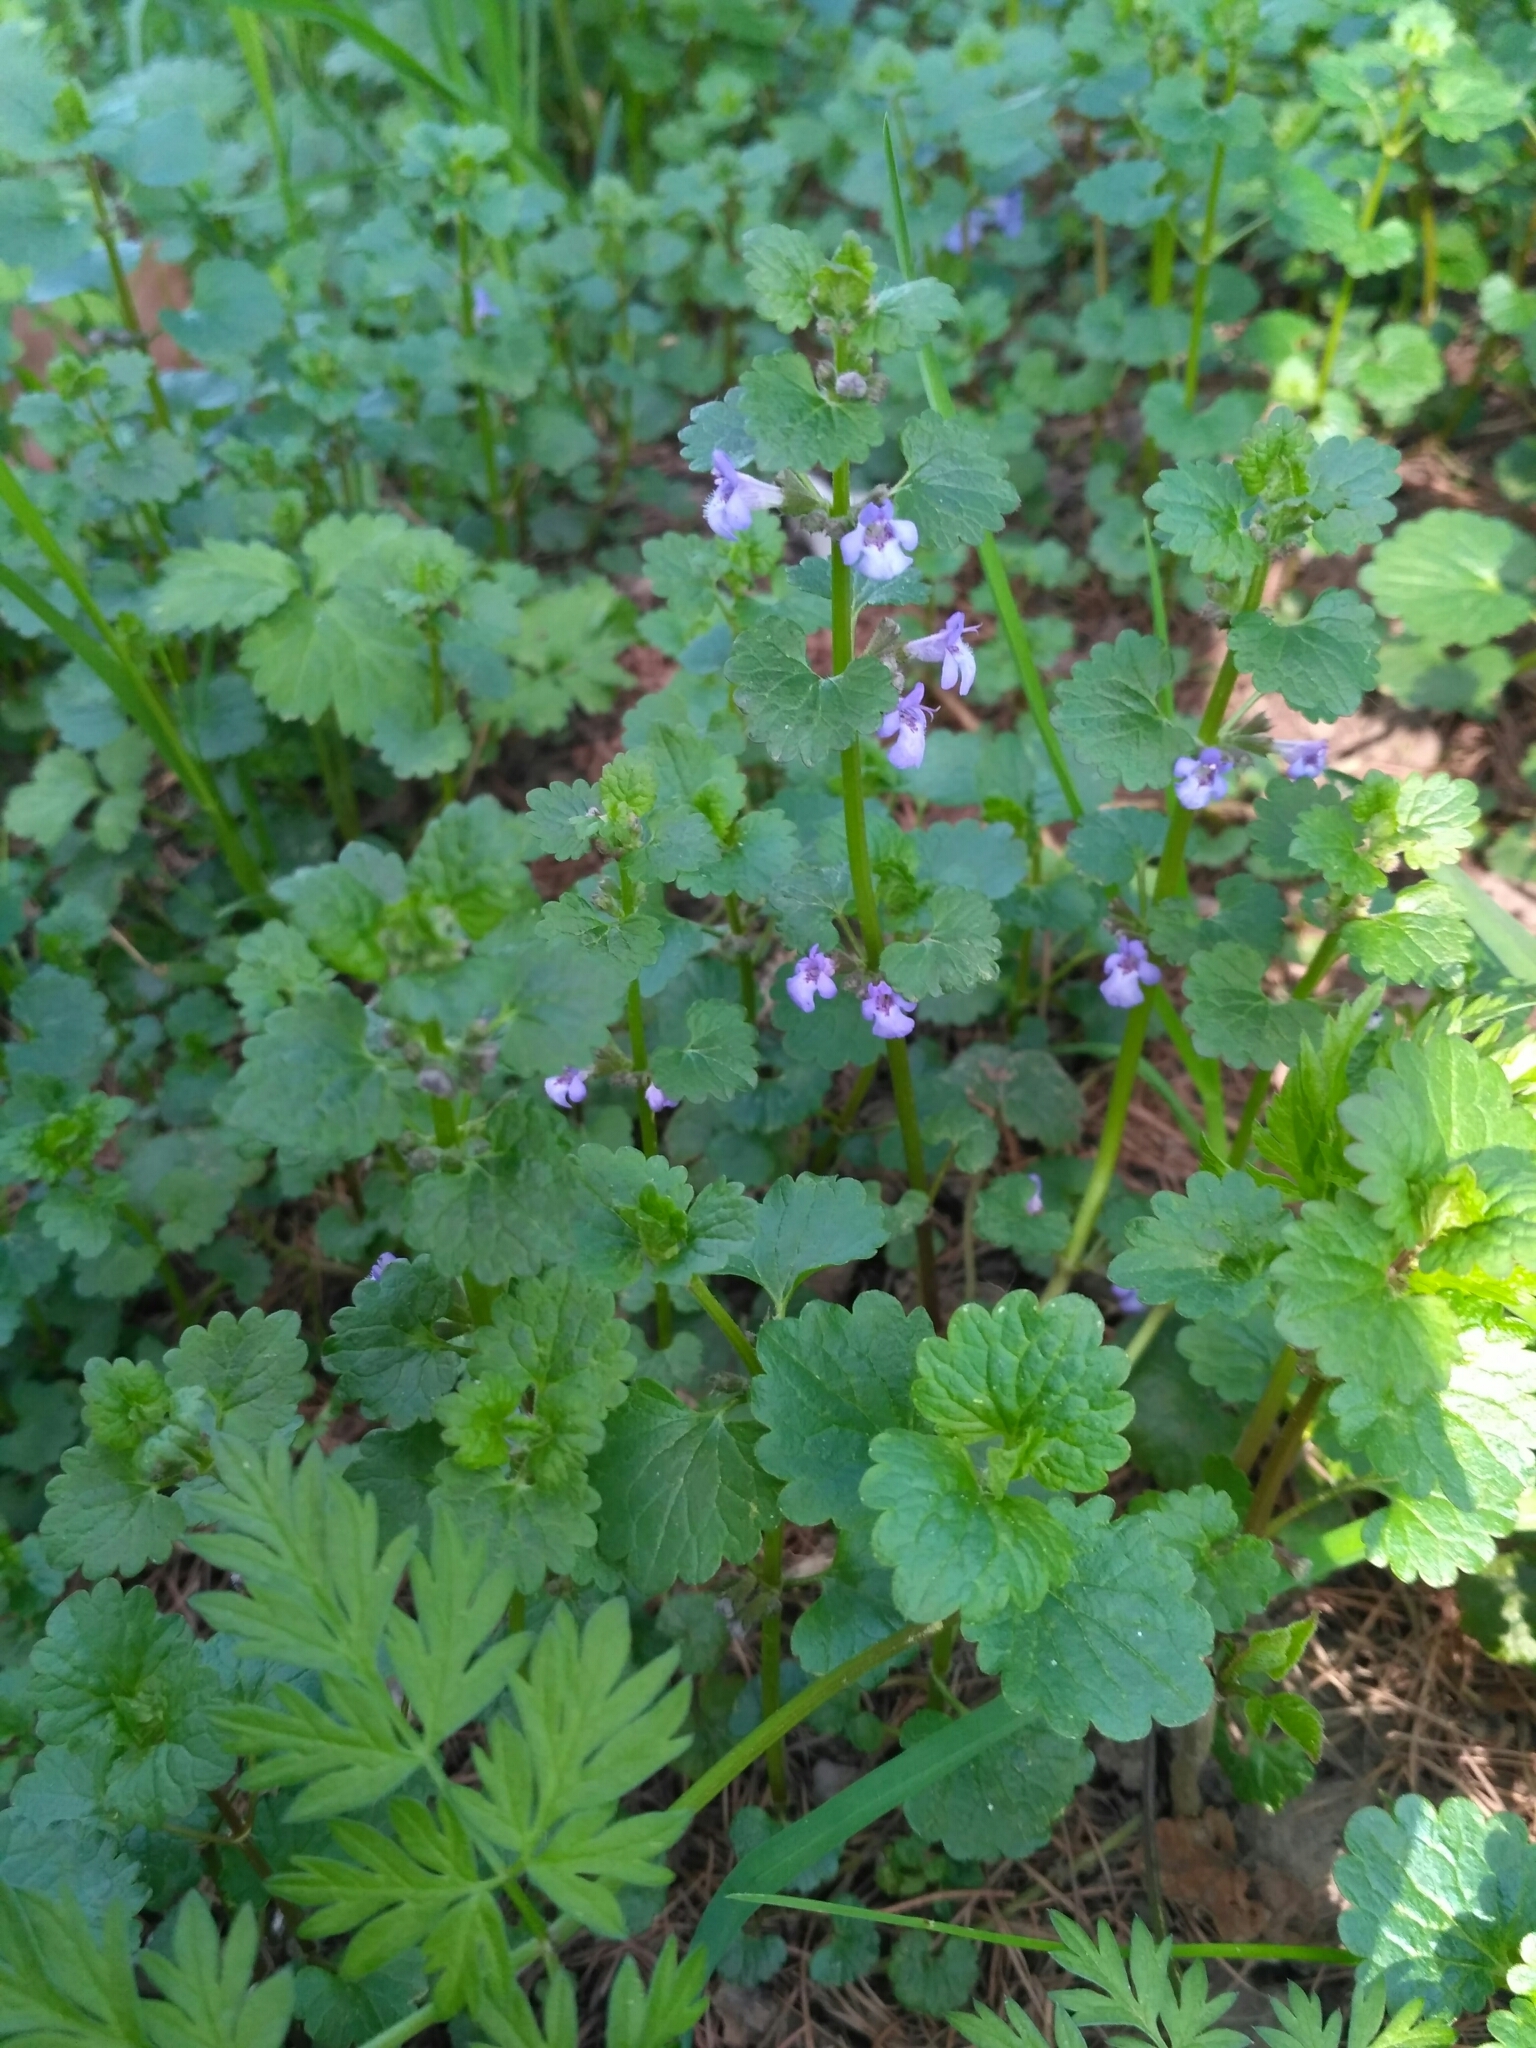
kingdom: Plantae
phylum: Tracheophyta
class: Magnoliopsida
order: Lamiales
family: Lamiaceae
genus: Glechoma
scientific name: Glechoma hederacea
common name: Ground ivy
